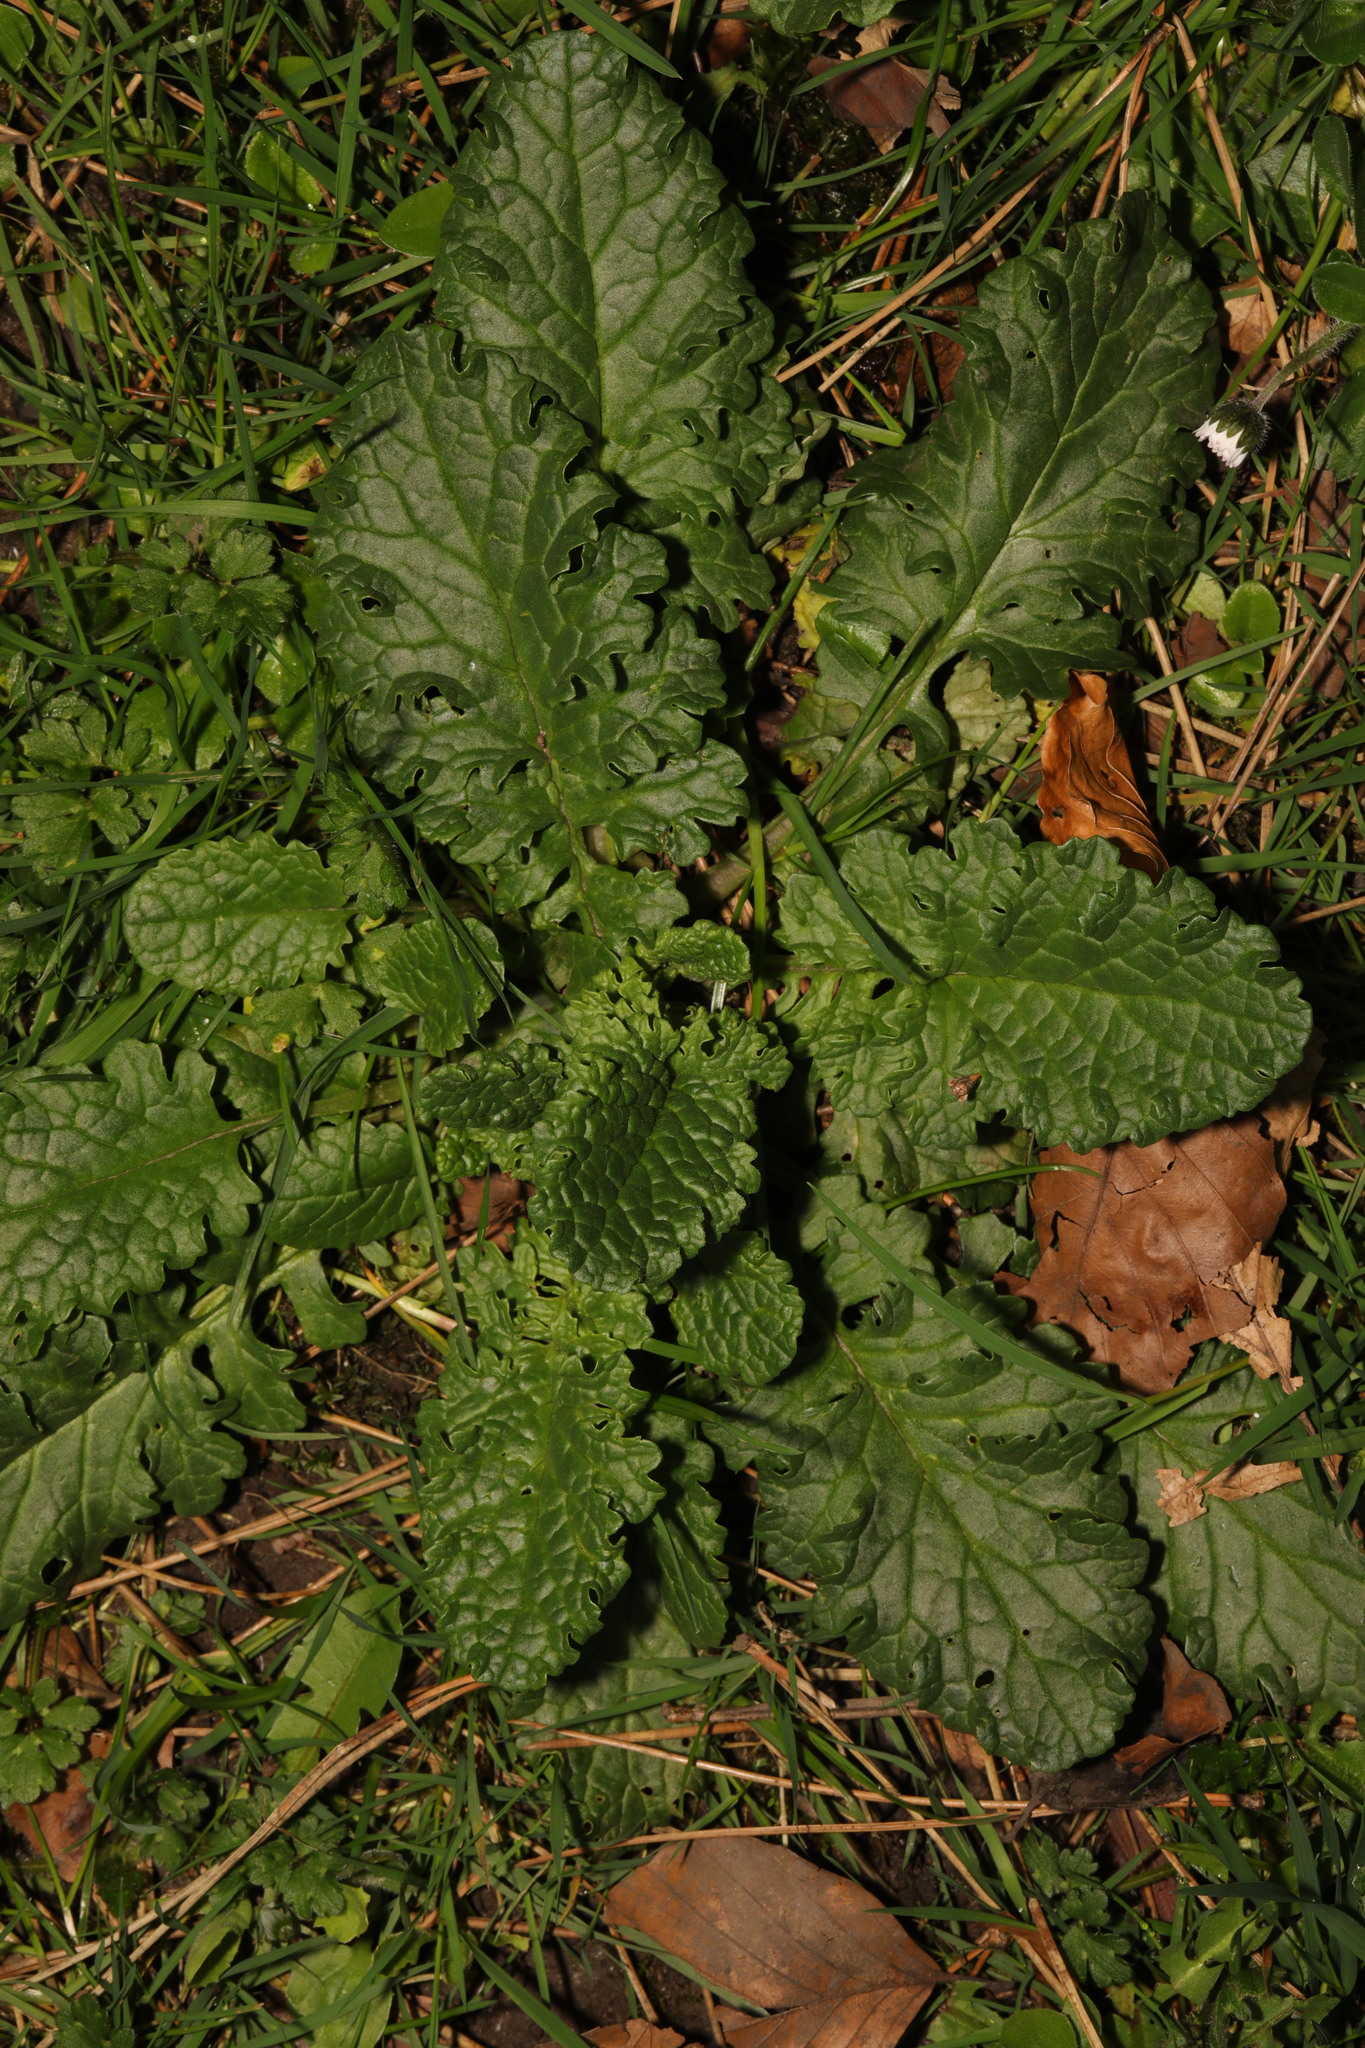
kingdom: Plantae
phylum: Tracheophyta
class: Magnoliopsida
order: Asterales
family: Asteraceae
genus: Jacobaea
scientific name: Jacobaea vulgaris
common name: Stinking willie
